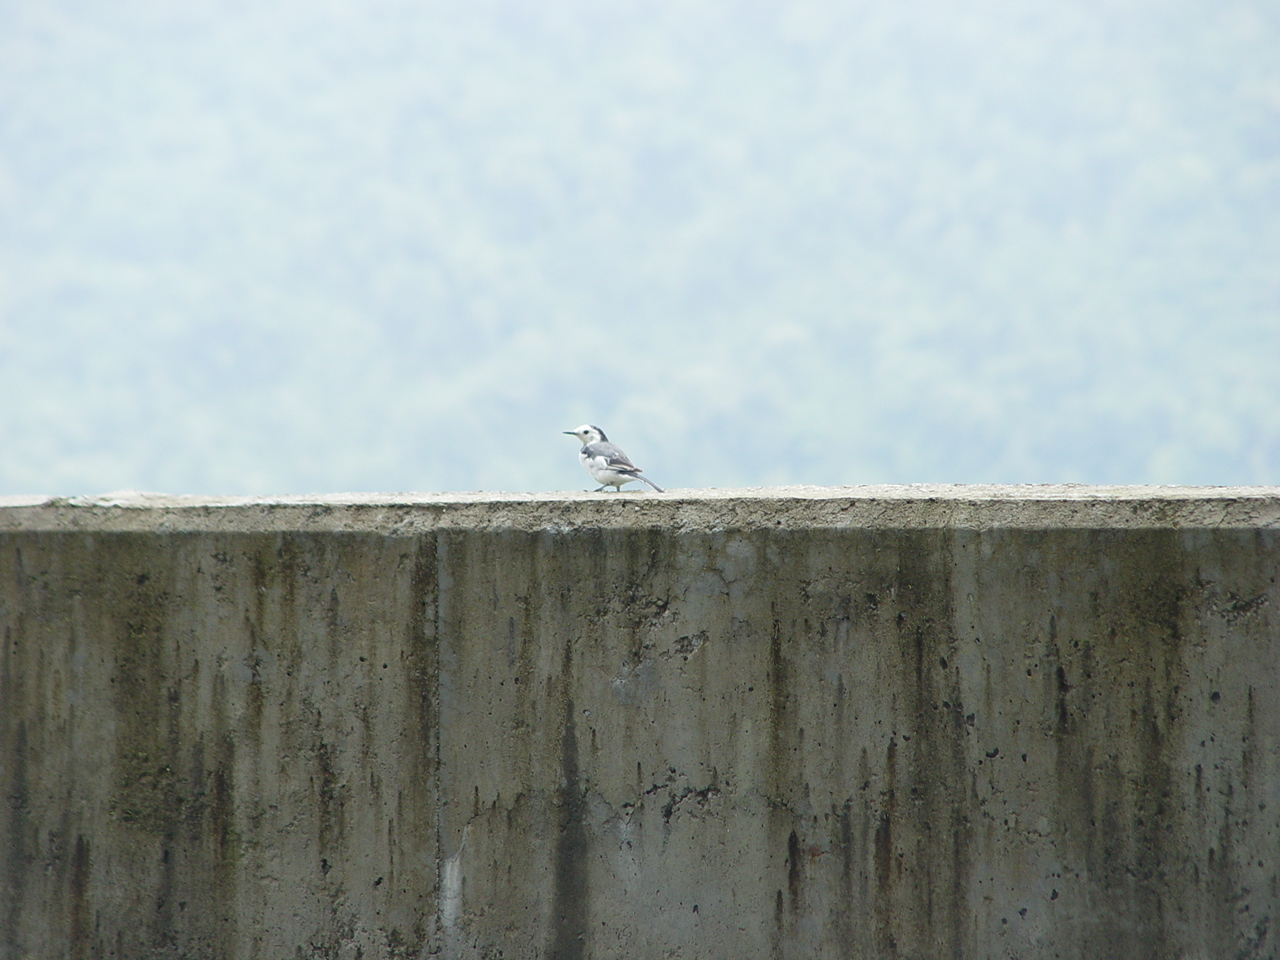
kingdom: Animalia
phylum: Chordata
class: Aves
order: Passeriformes
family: Motacillidae
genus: Motacilla
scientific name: Motacilla alba
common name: White wagtail
